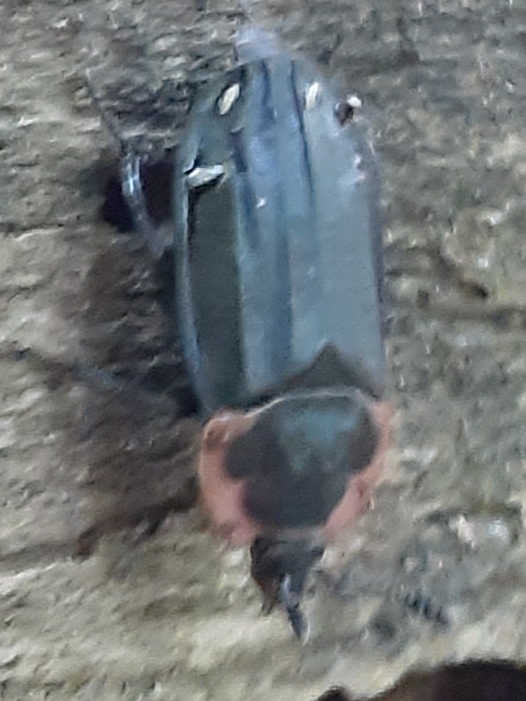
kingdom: Animalia
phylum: Arthropoda
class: Insecta
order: Coleoptera
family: Staphylinidae
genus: Oiceoptoma
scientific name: Oiceoptoma noveboracense
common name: Margined carrion beetle
